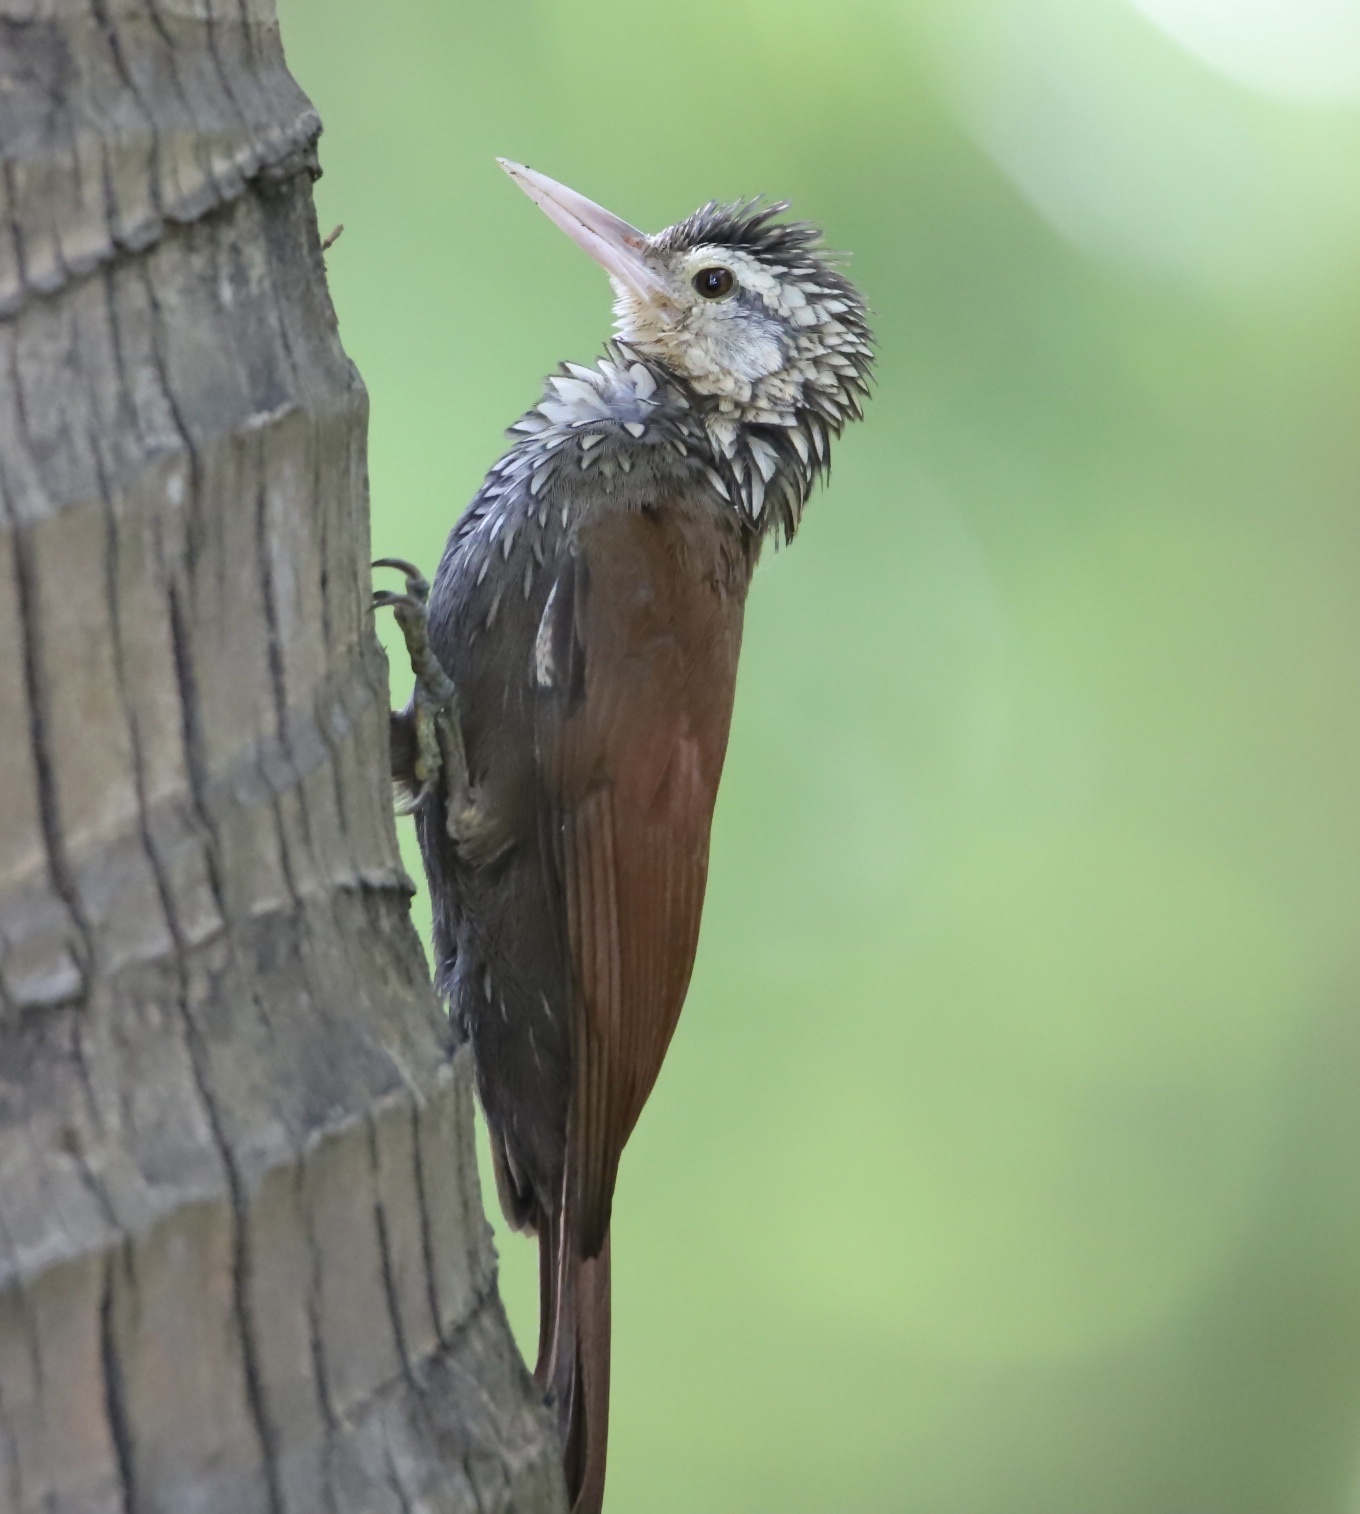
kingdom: Animalia
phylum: Chordata
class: Aves
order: Passeriformes
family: Furnariidae
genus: Xiphorhynchus
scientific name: Xiphorhynchus picus
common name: Straight-billed woodcreeper
